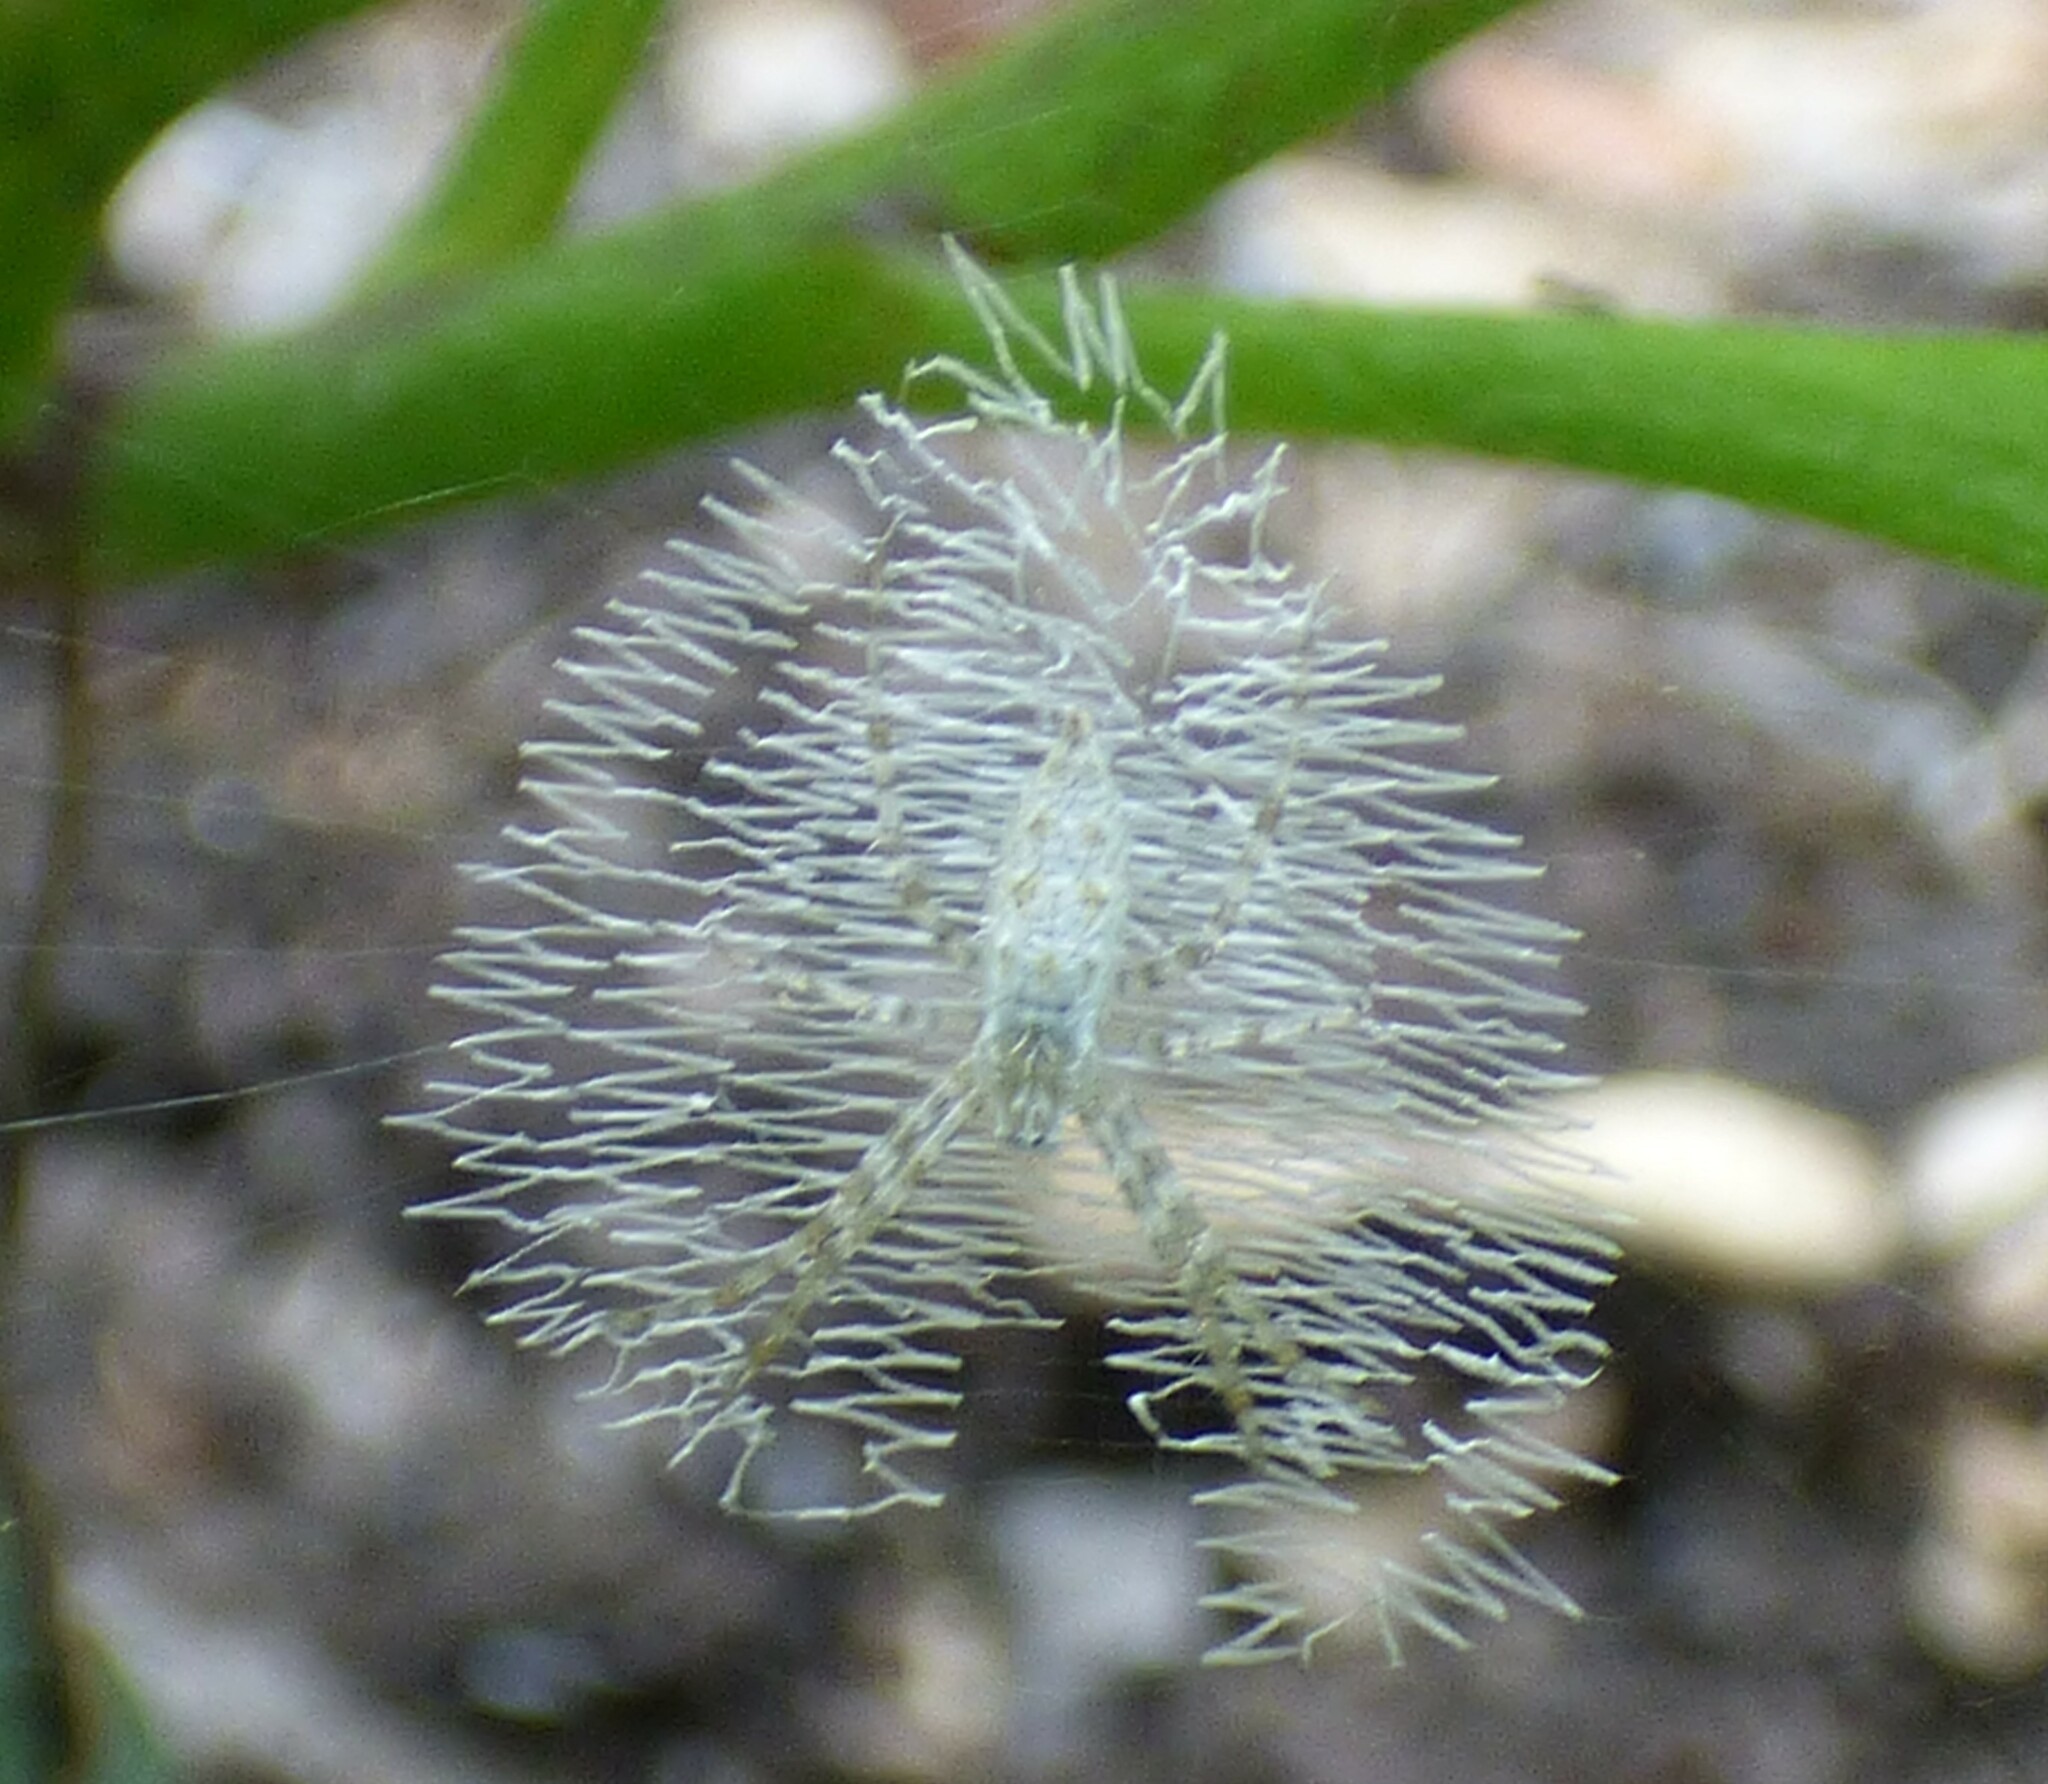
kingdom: Animalia
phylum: Arthropoda
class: Arachnida
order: Araneae
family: Araneidae
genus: Argiope
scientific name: Argiope aurantia
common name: Orb weavers
